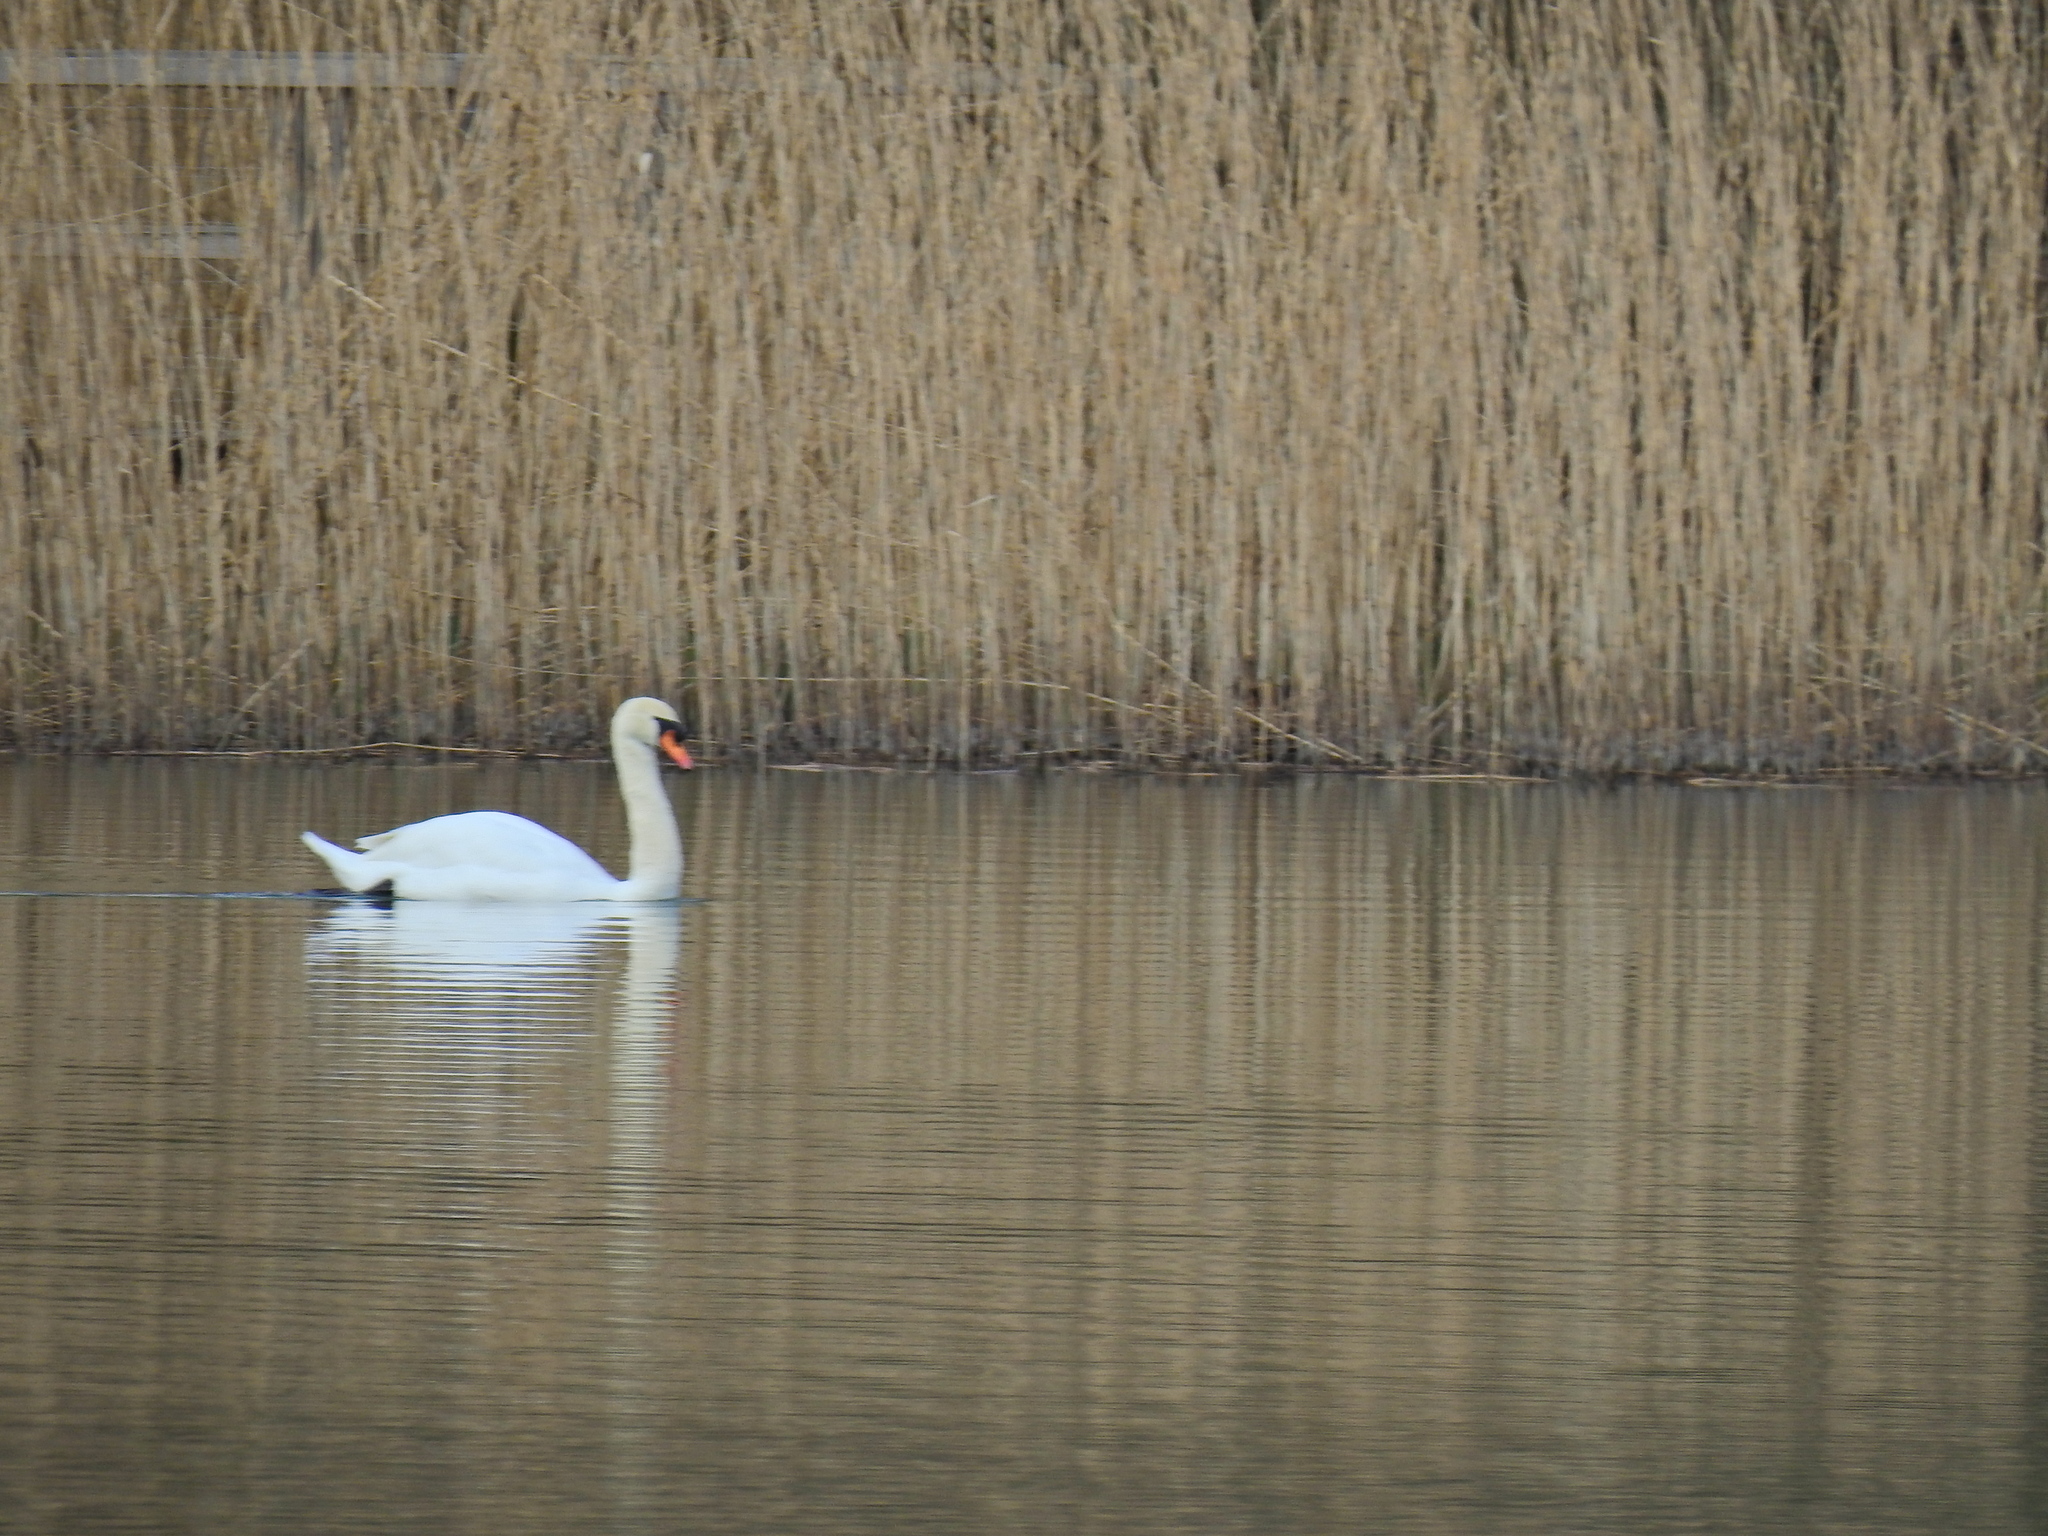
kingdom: Animalia
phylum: Chordata
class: Aves
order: Anseriformes
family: Anatidae
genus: Cygnus
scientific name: Cygnus olor
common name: Mute swan
